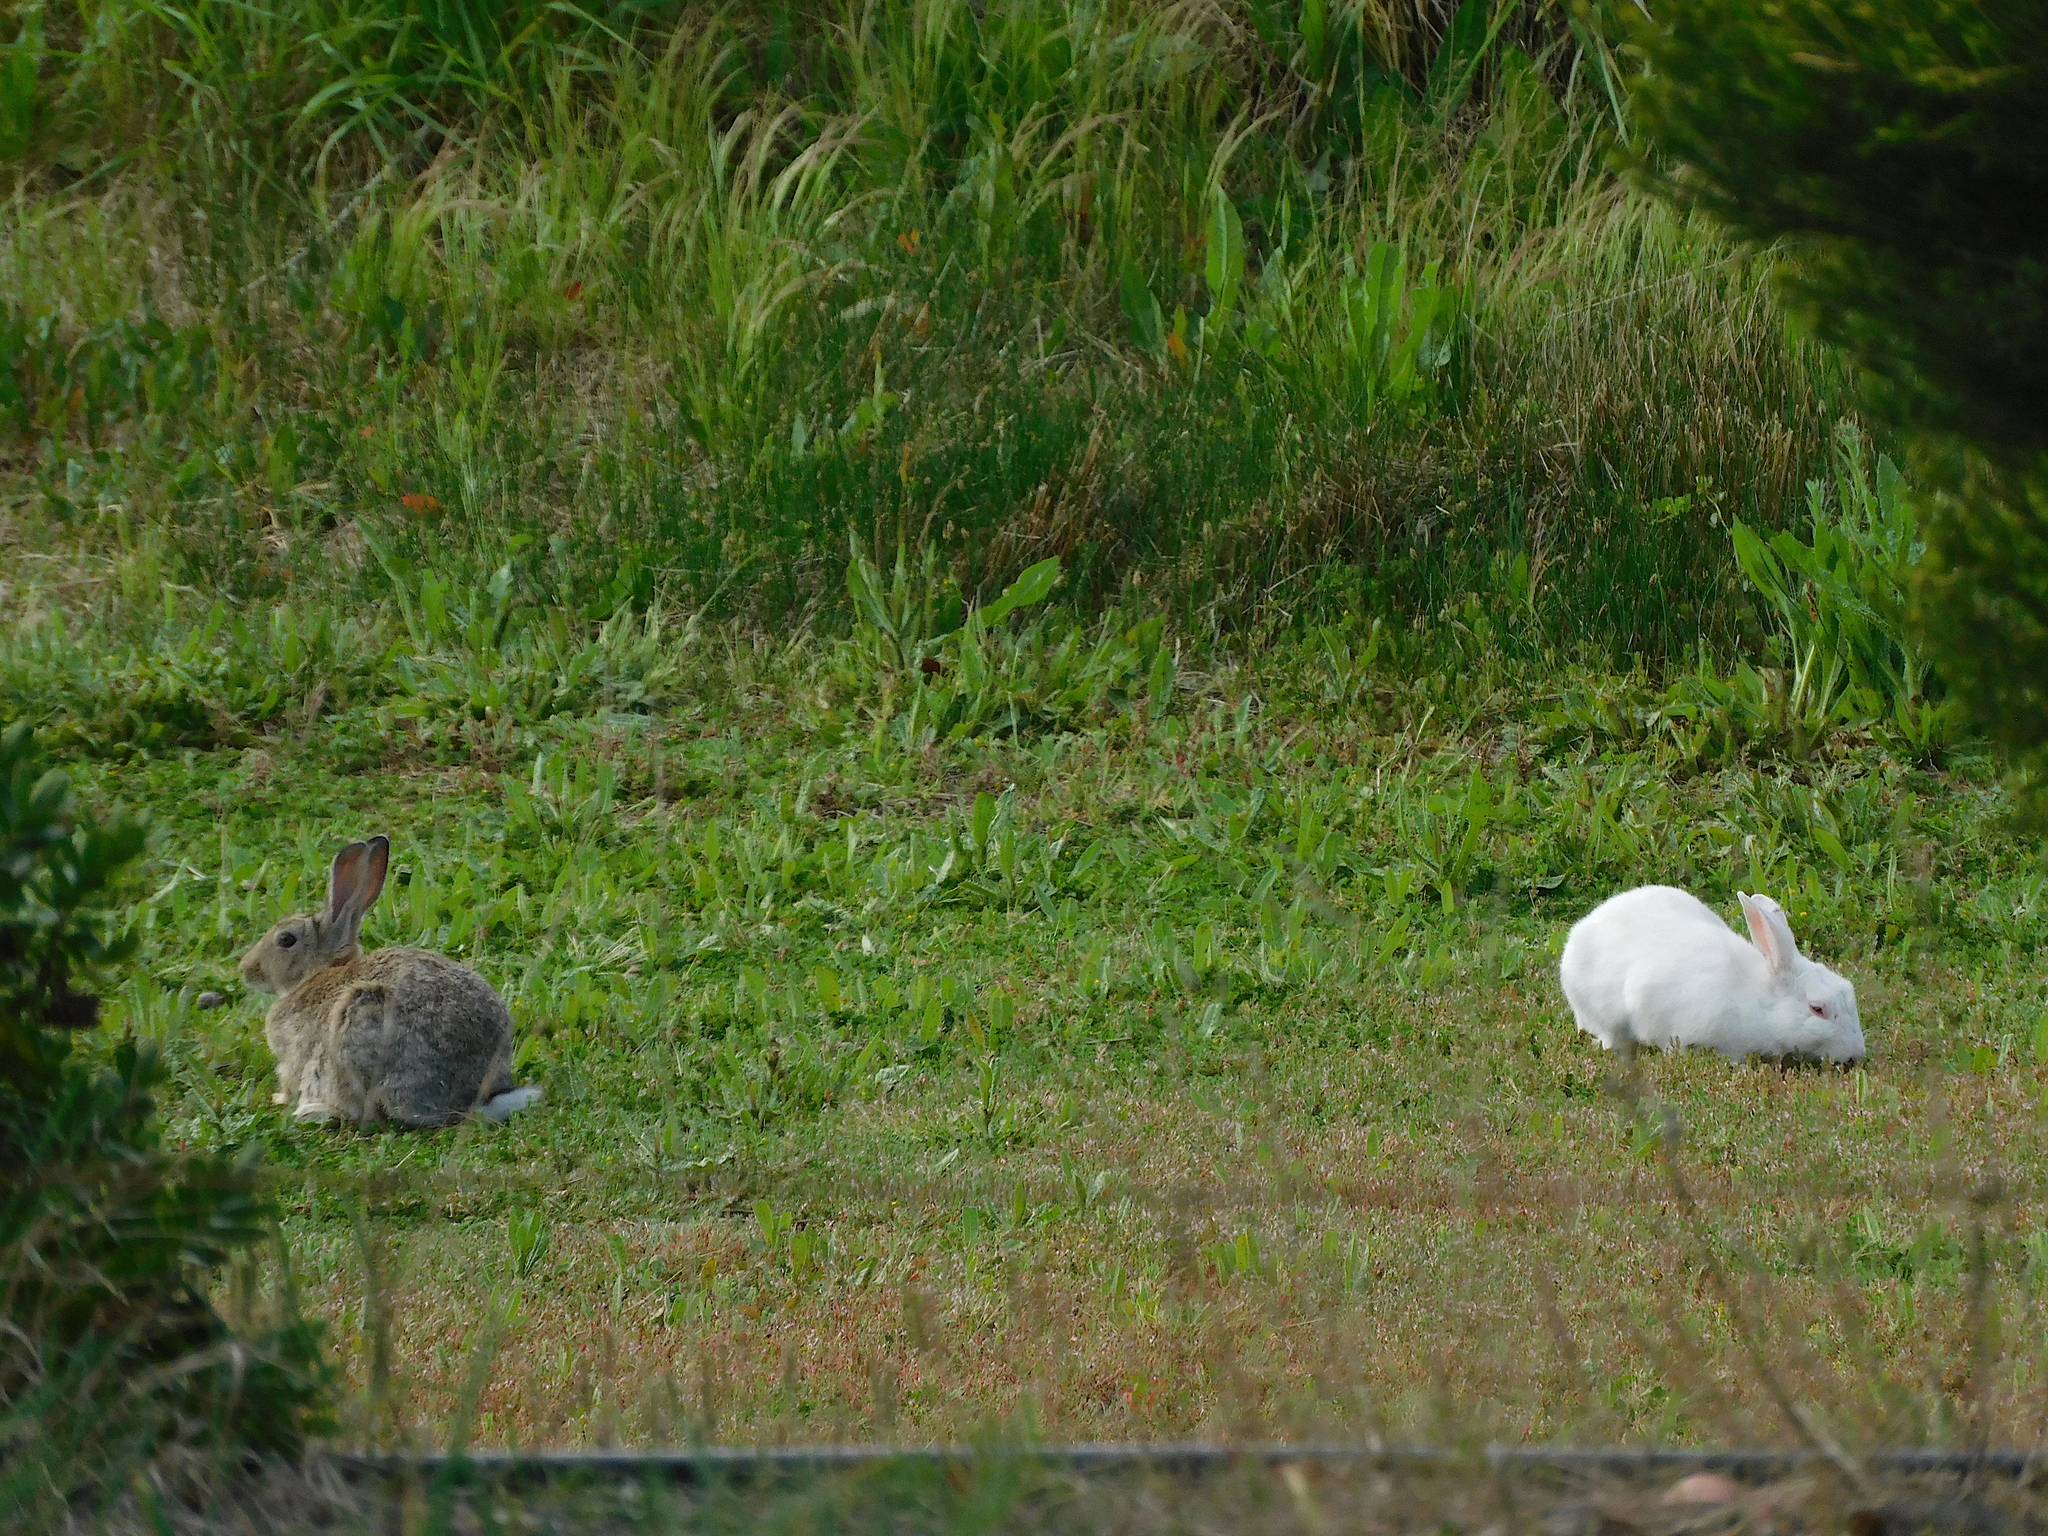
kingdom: Animalia
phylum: Chordata
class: Mammalia
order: Lagomorpha
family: Leporidae
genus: Oryctolagus
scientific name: Oryctolagus cuniculus
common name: European rabbit
